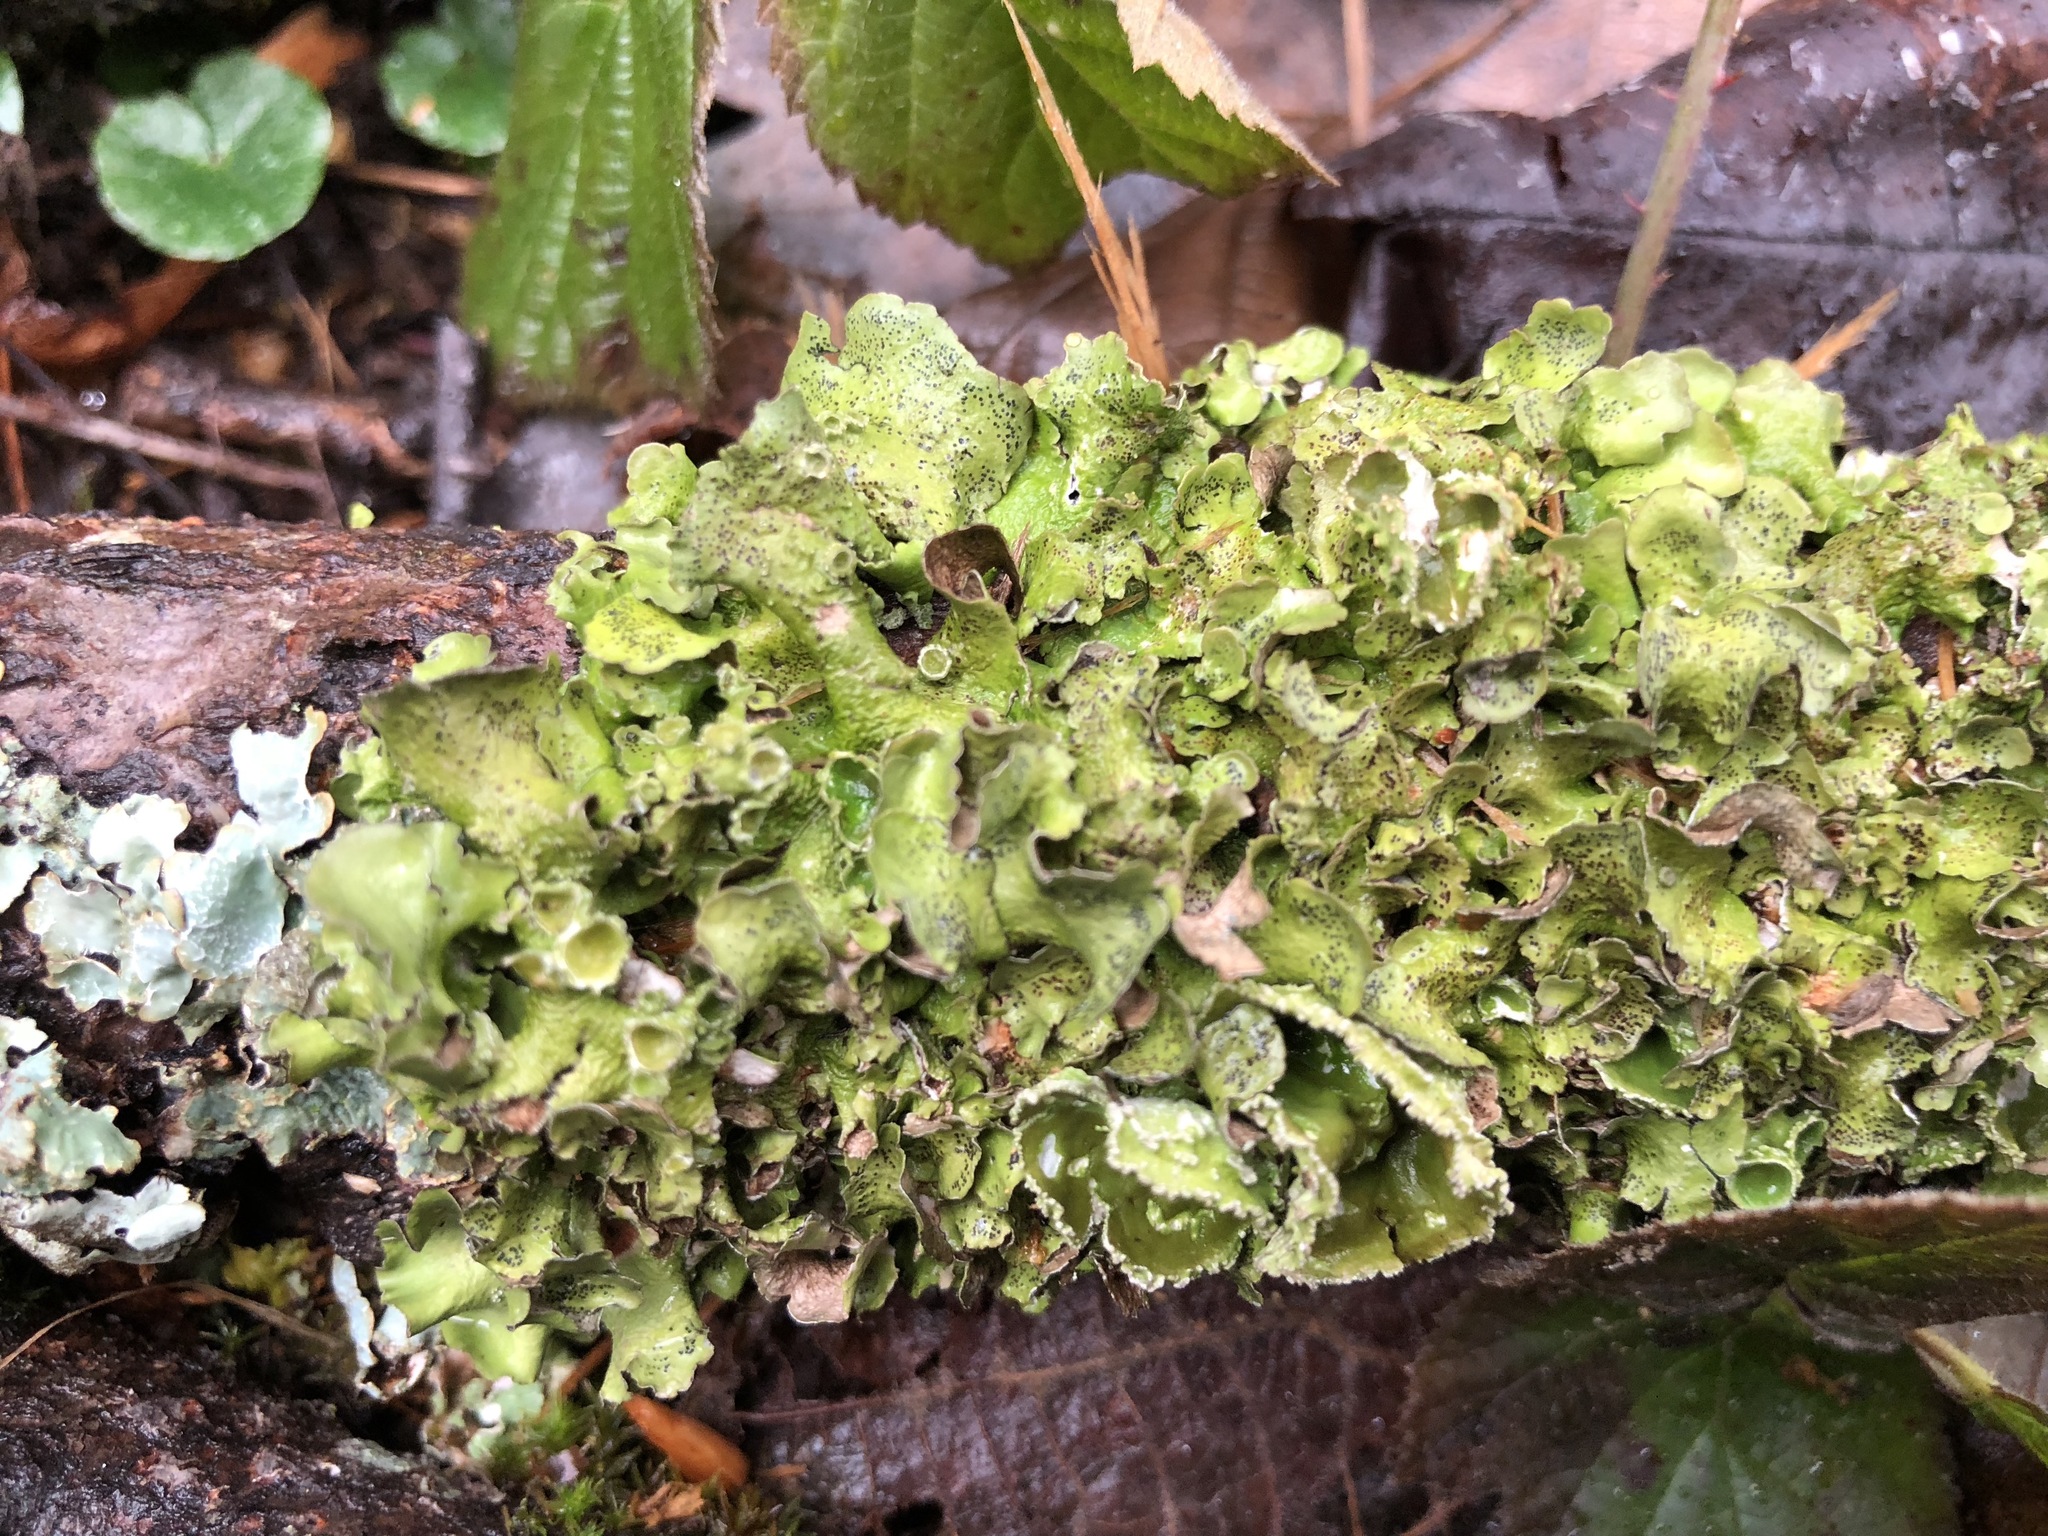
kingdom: Fungi
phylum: Ascomycota
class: Lecanoromycetes
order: Lecanorales
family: Parmeliaceae
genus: Pleurosticta
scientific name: Pleurosticta acetabulum
